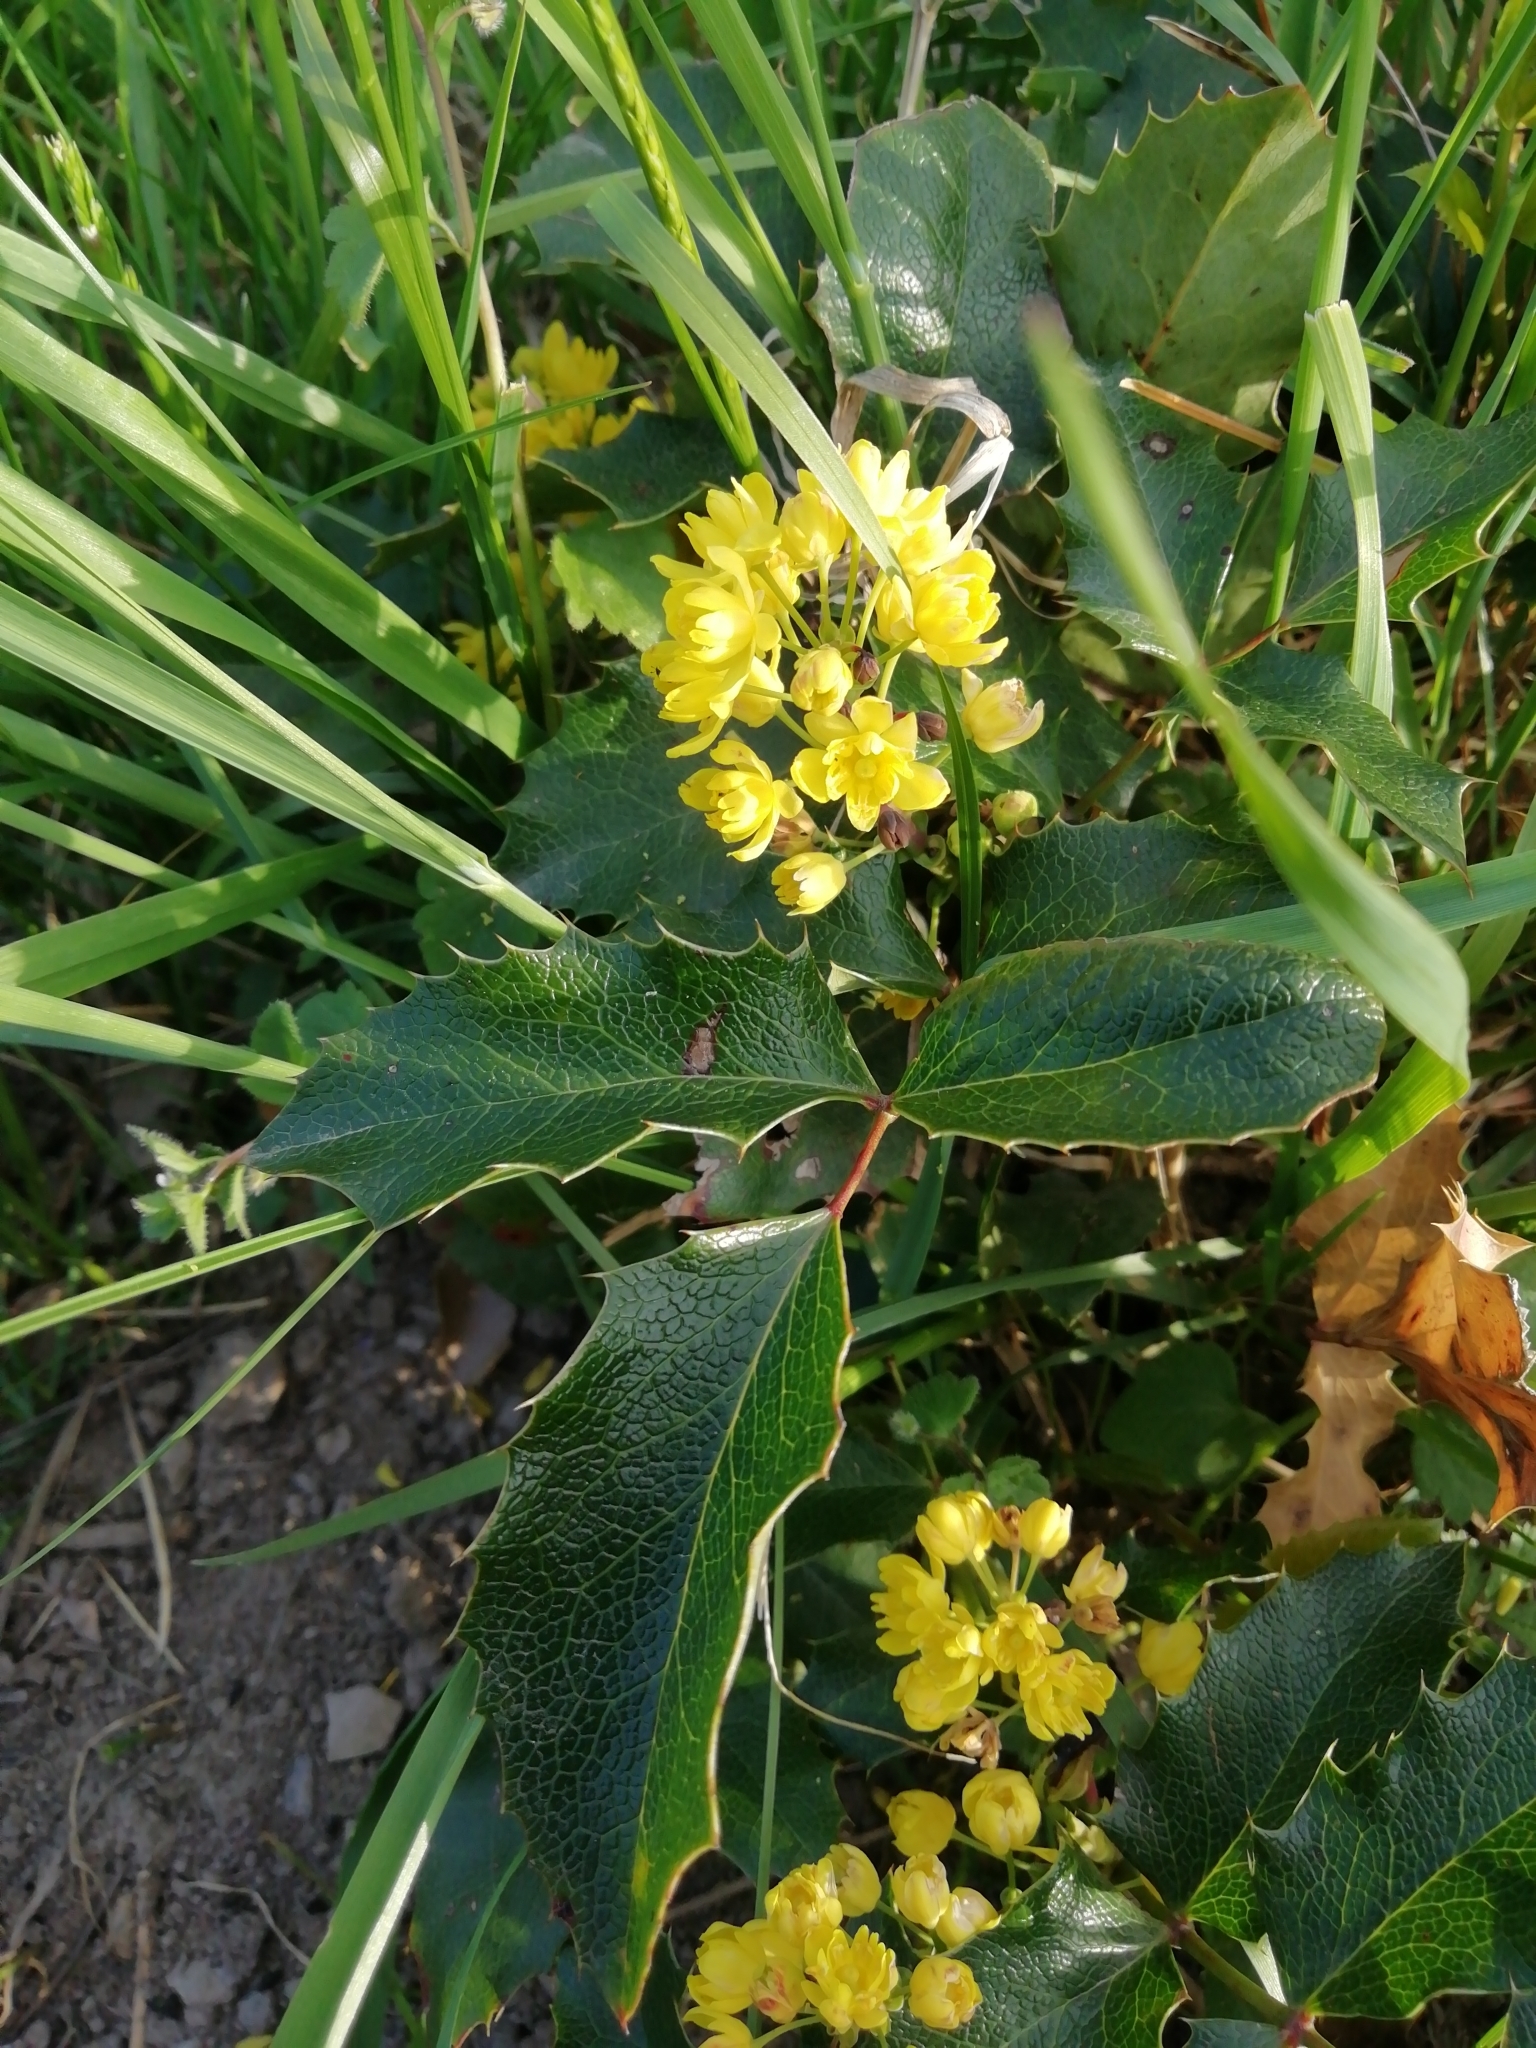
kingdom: Plantae
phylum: Tracheophyta
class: Magnoliopsida
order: Ranunculales
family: Berberidaceae
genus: Mahonia
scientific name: Mahonia aquifolium
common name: Oregon-grape
